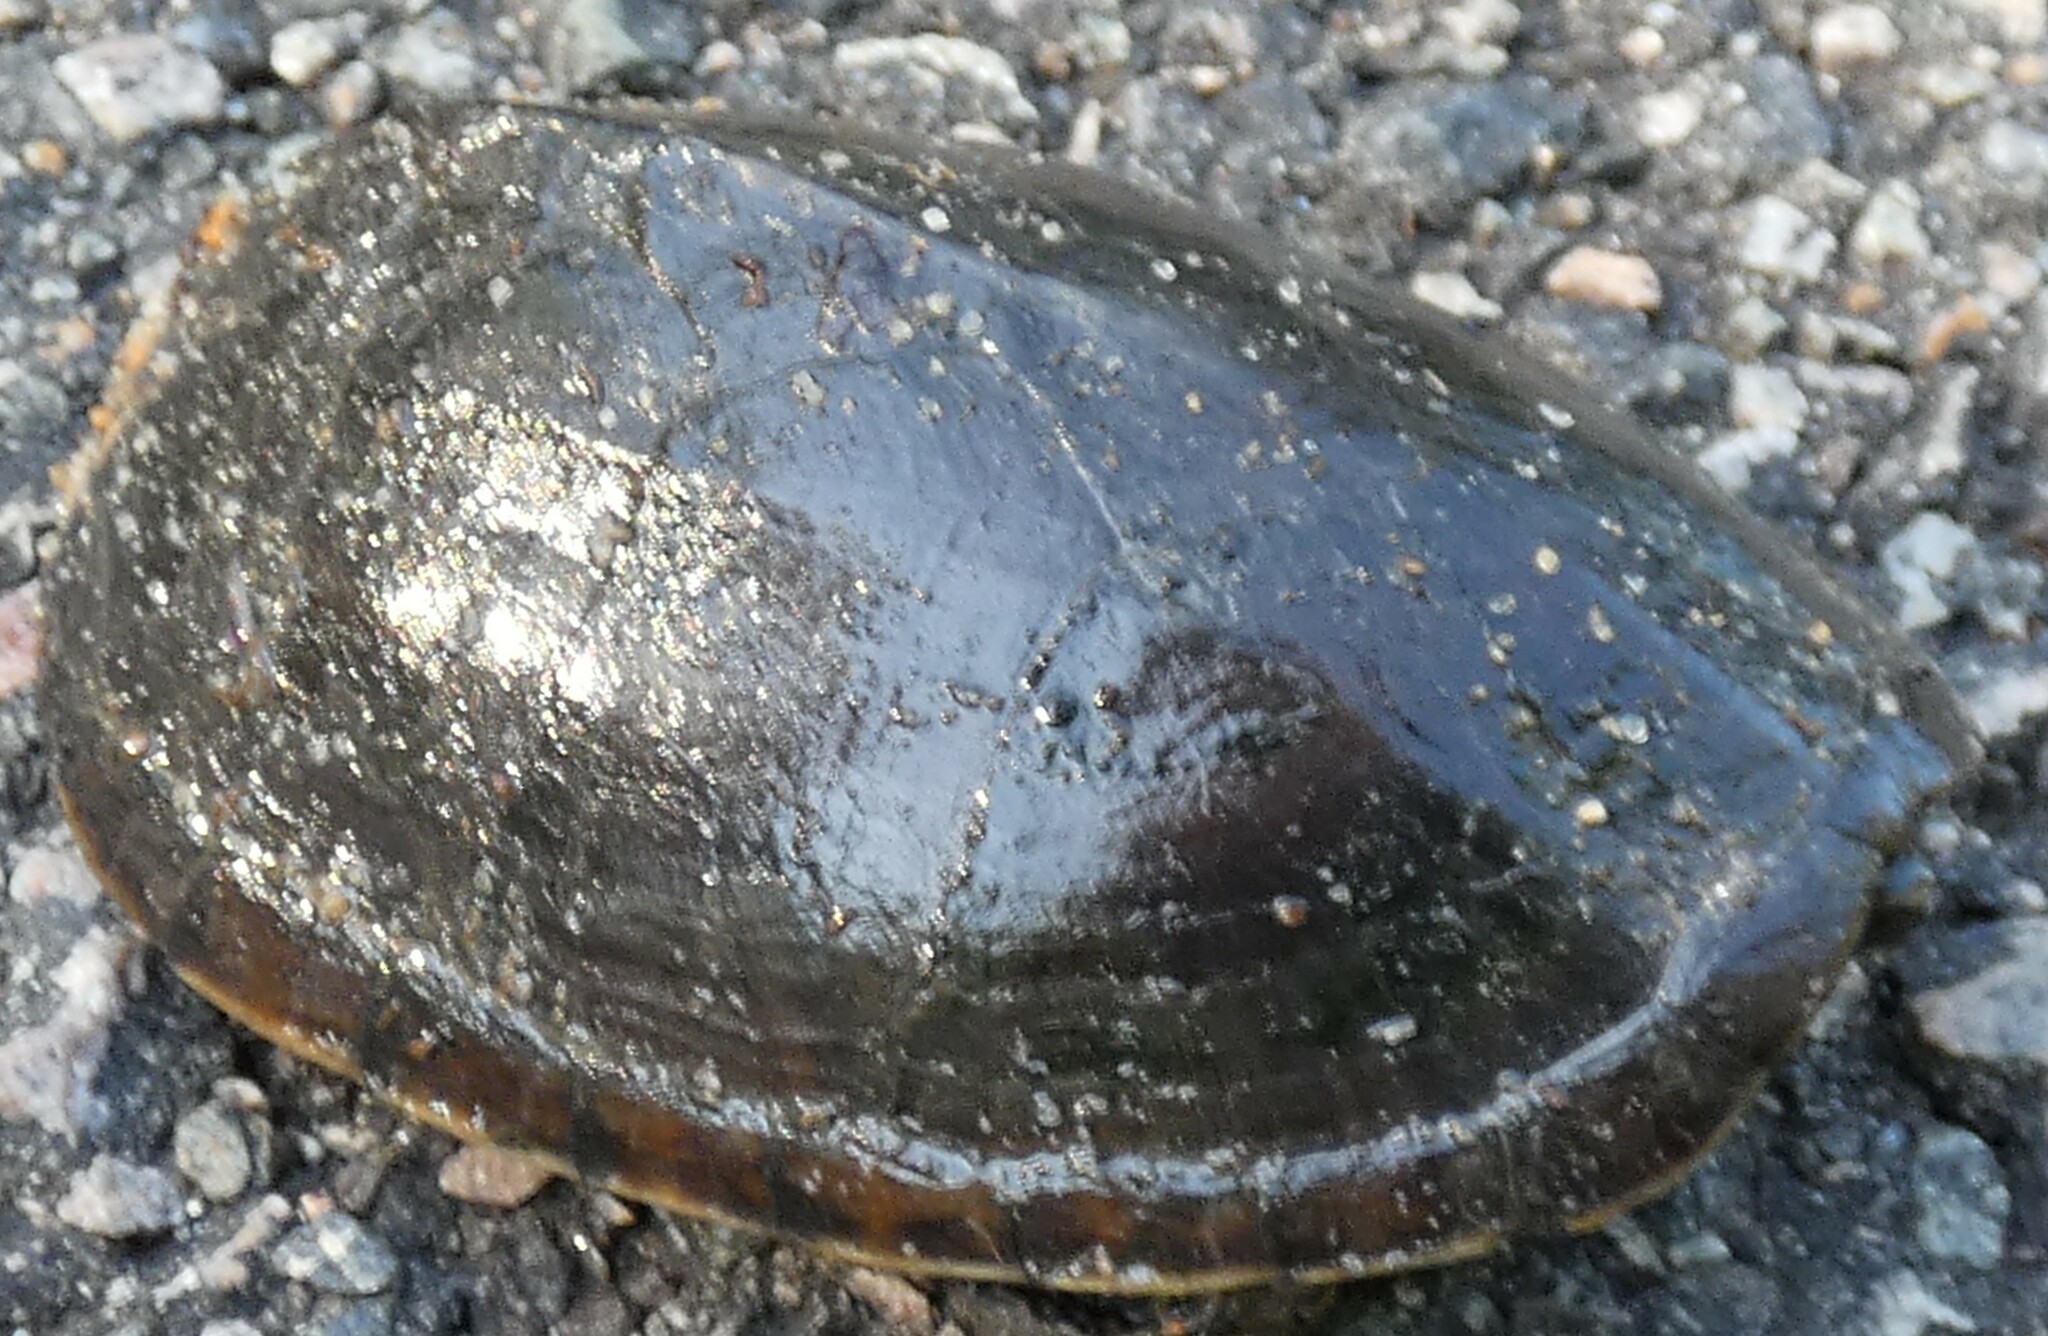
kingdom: Animalia
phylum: Chordata
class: Testudines
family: Kinosternidae
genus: Sternotherus
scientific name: Sternotherus odoratus
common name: Common musk turtle
